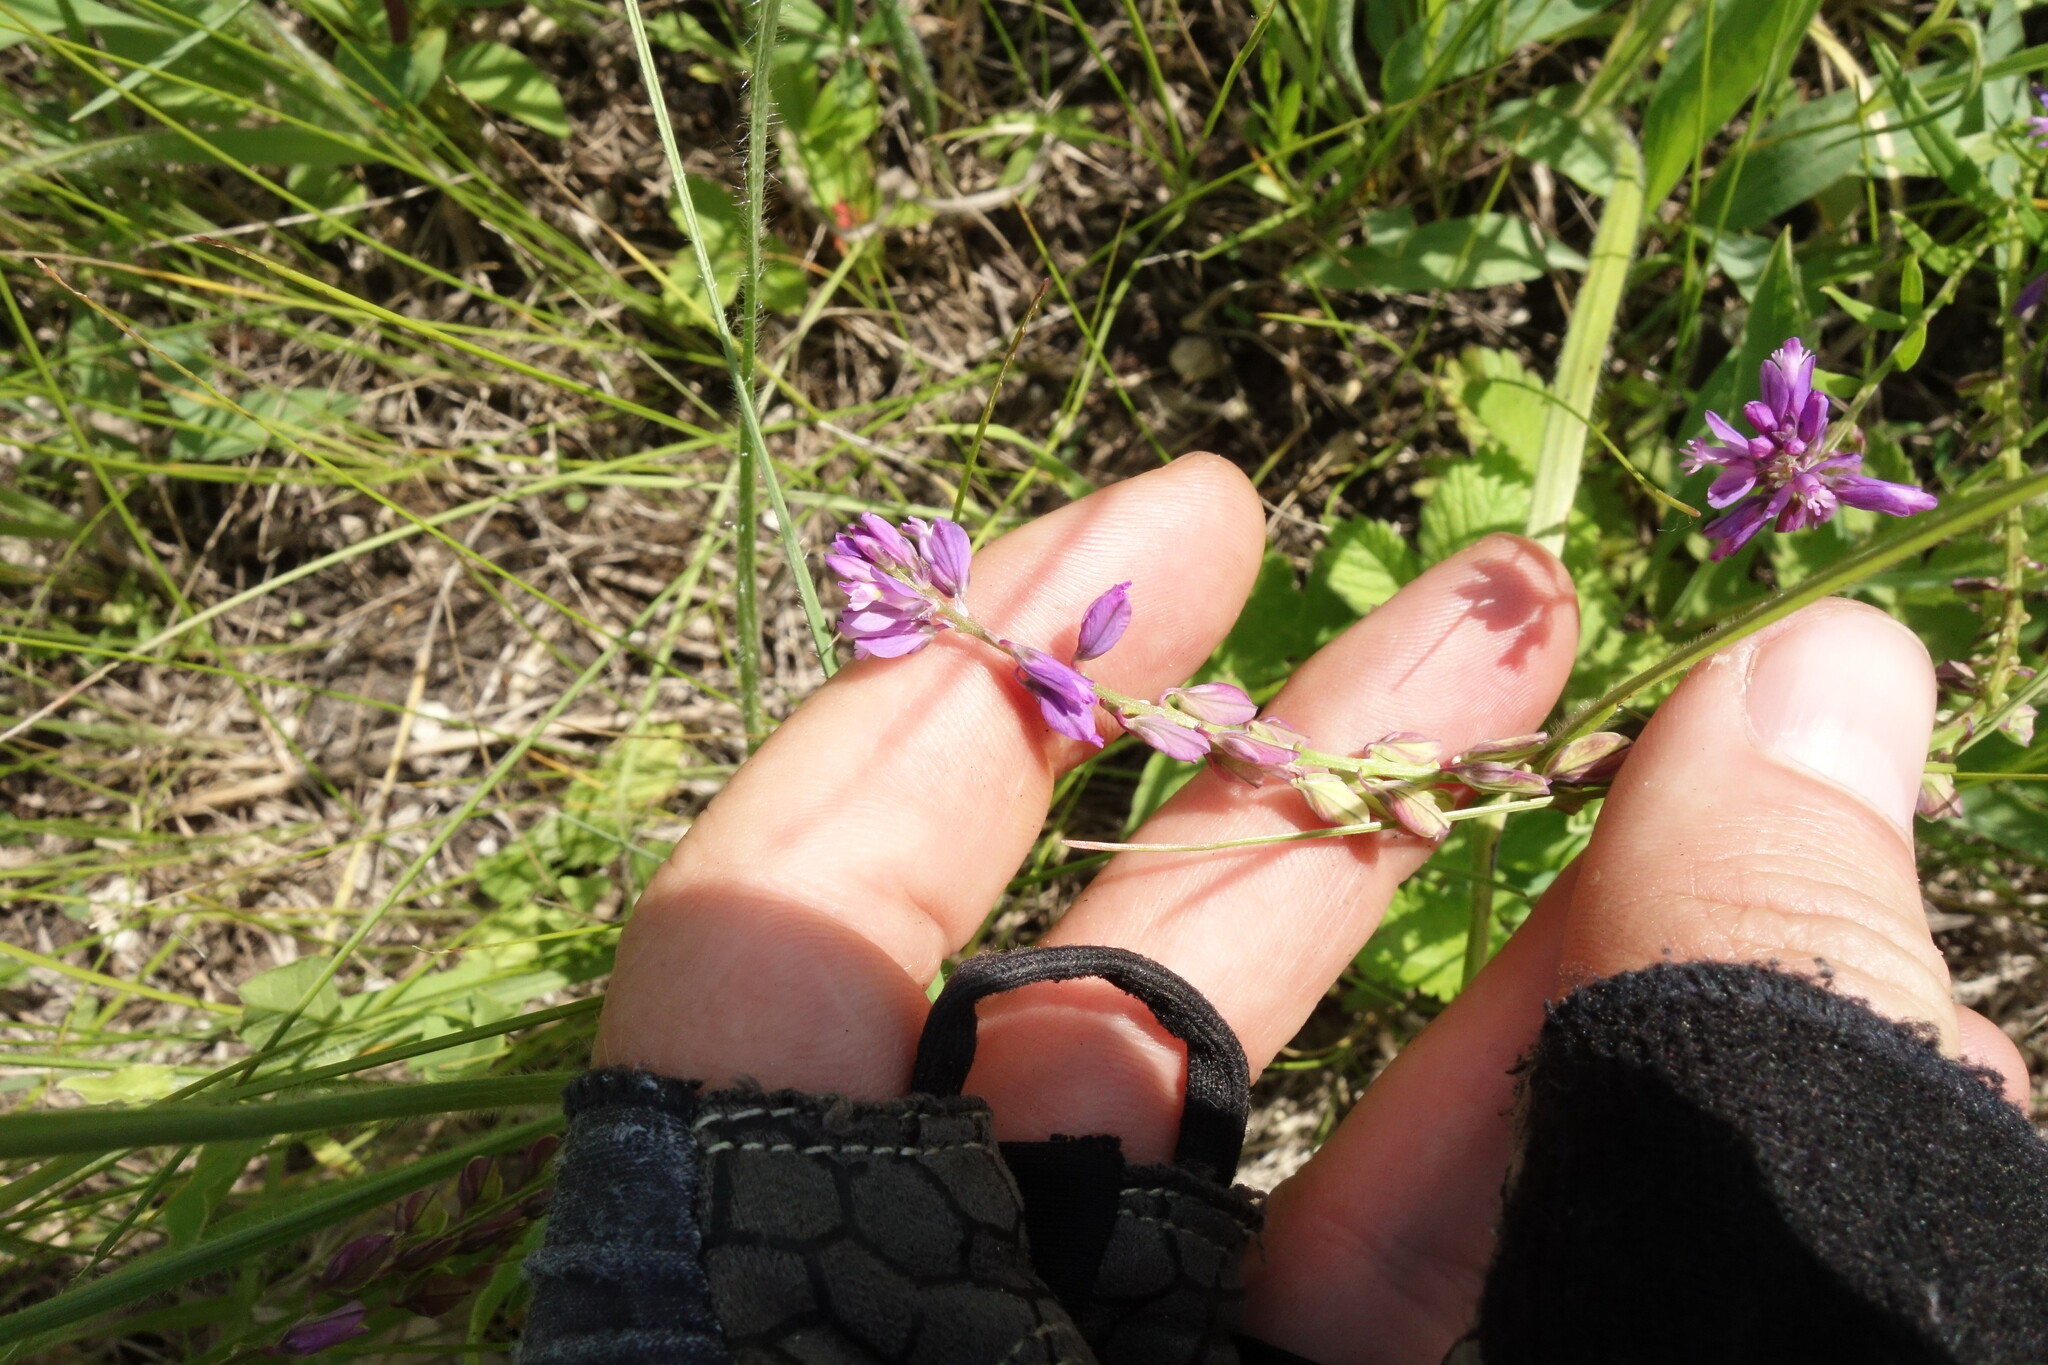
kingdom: Plantae
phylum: Tracheophyta
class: Magnoliopsida
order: Fabales
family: Polygalaceae
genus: Polygala
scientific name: Polygala comosa
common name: Tufted milkwort
